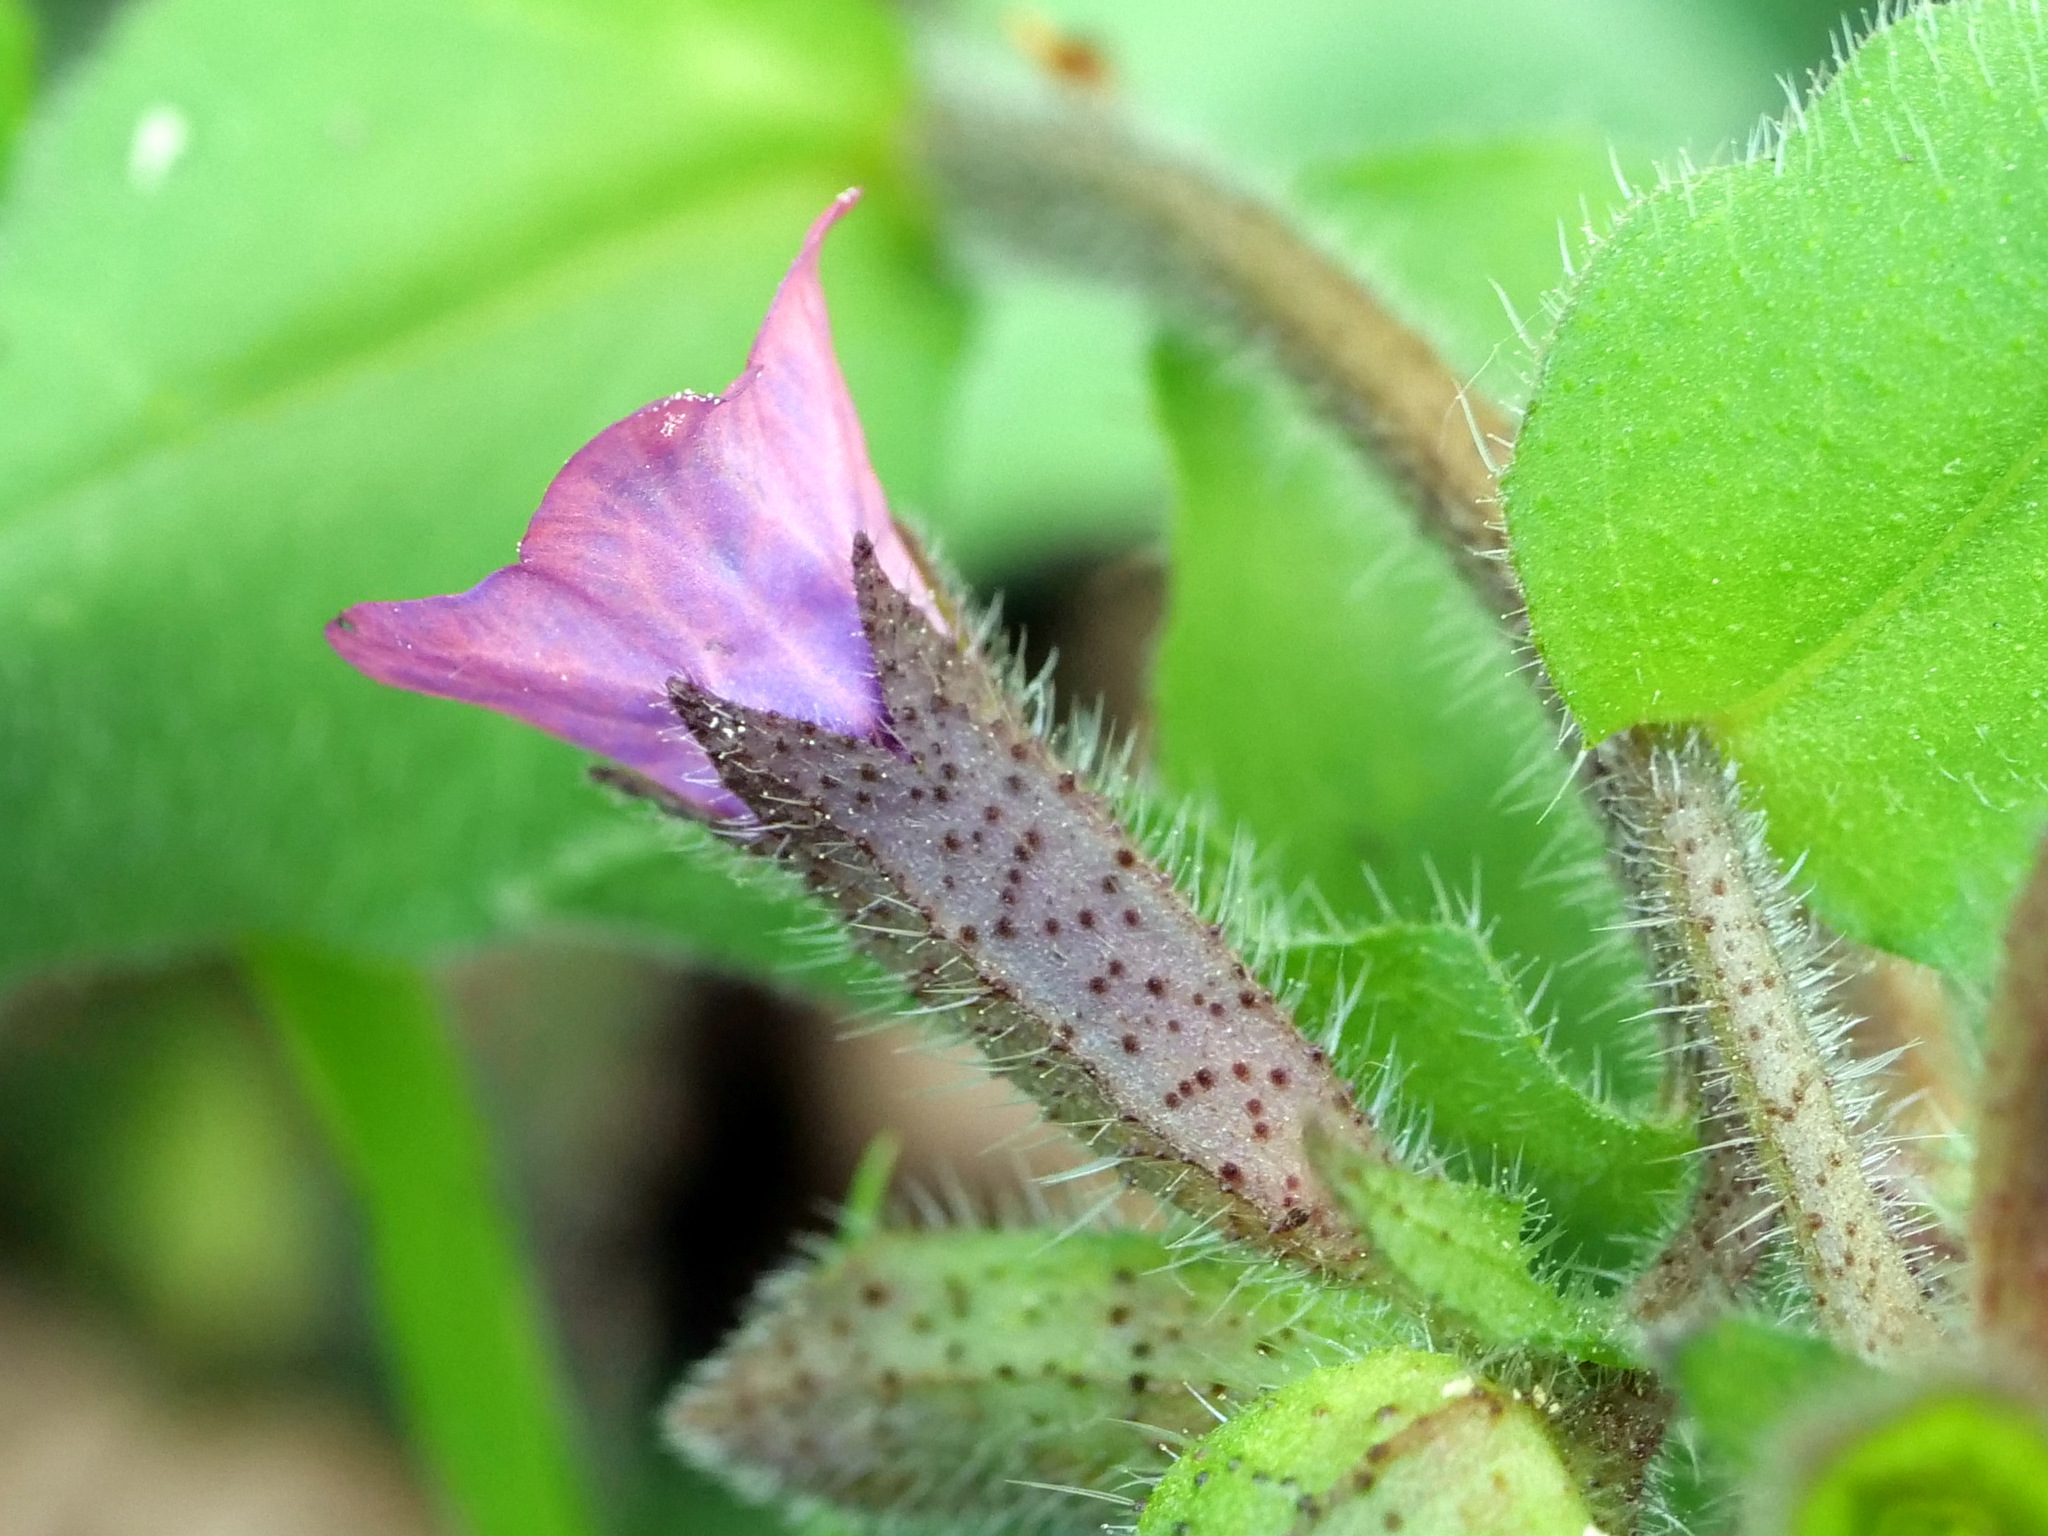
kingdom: Plantae
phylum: Tracheophyta
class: Magnoliopsida
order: Boraginales
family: Boraginaceae
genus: Pulmonaria
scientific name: Pulmonaria obscura
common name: Suffolk lungwort
